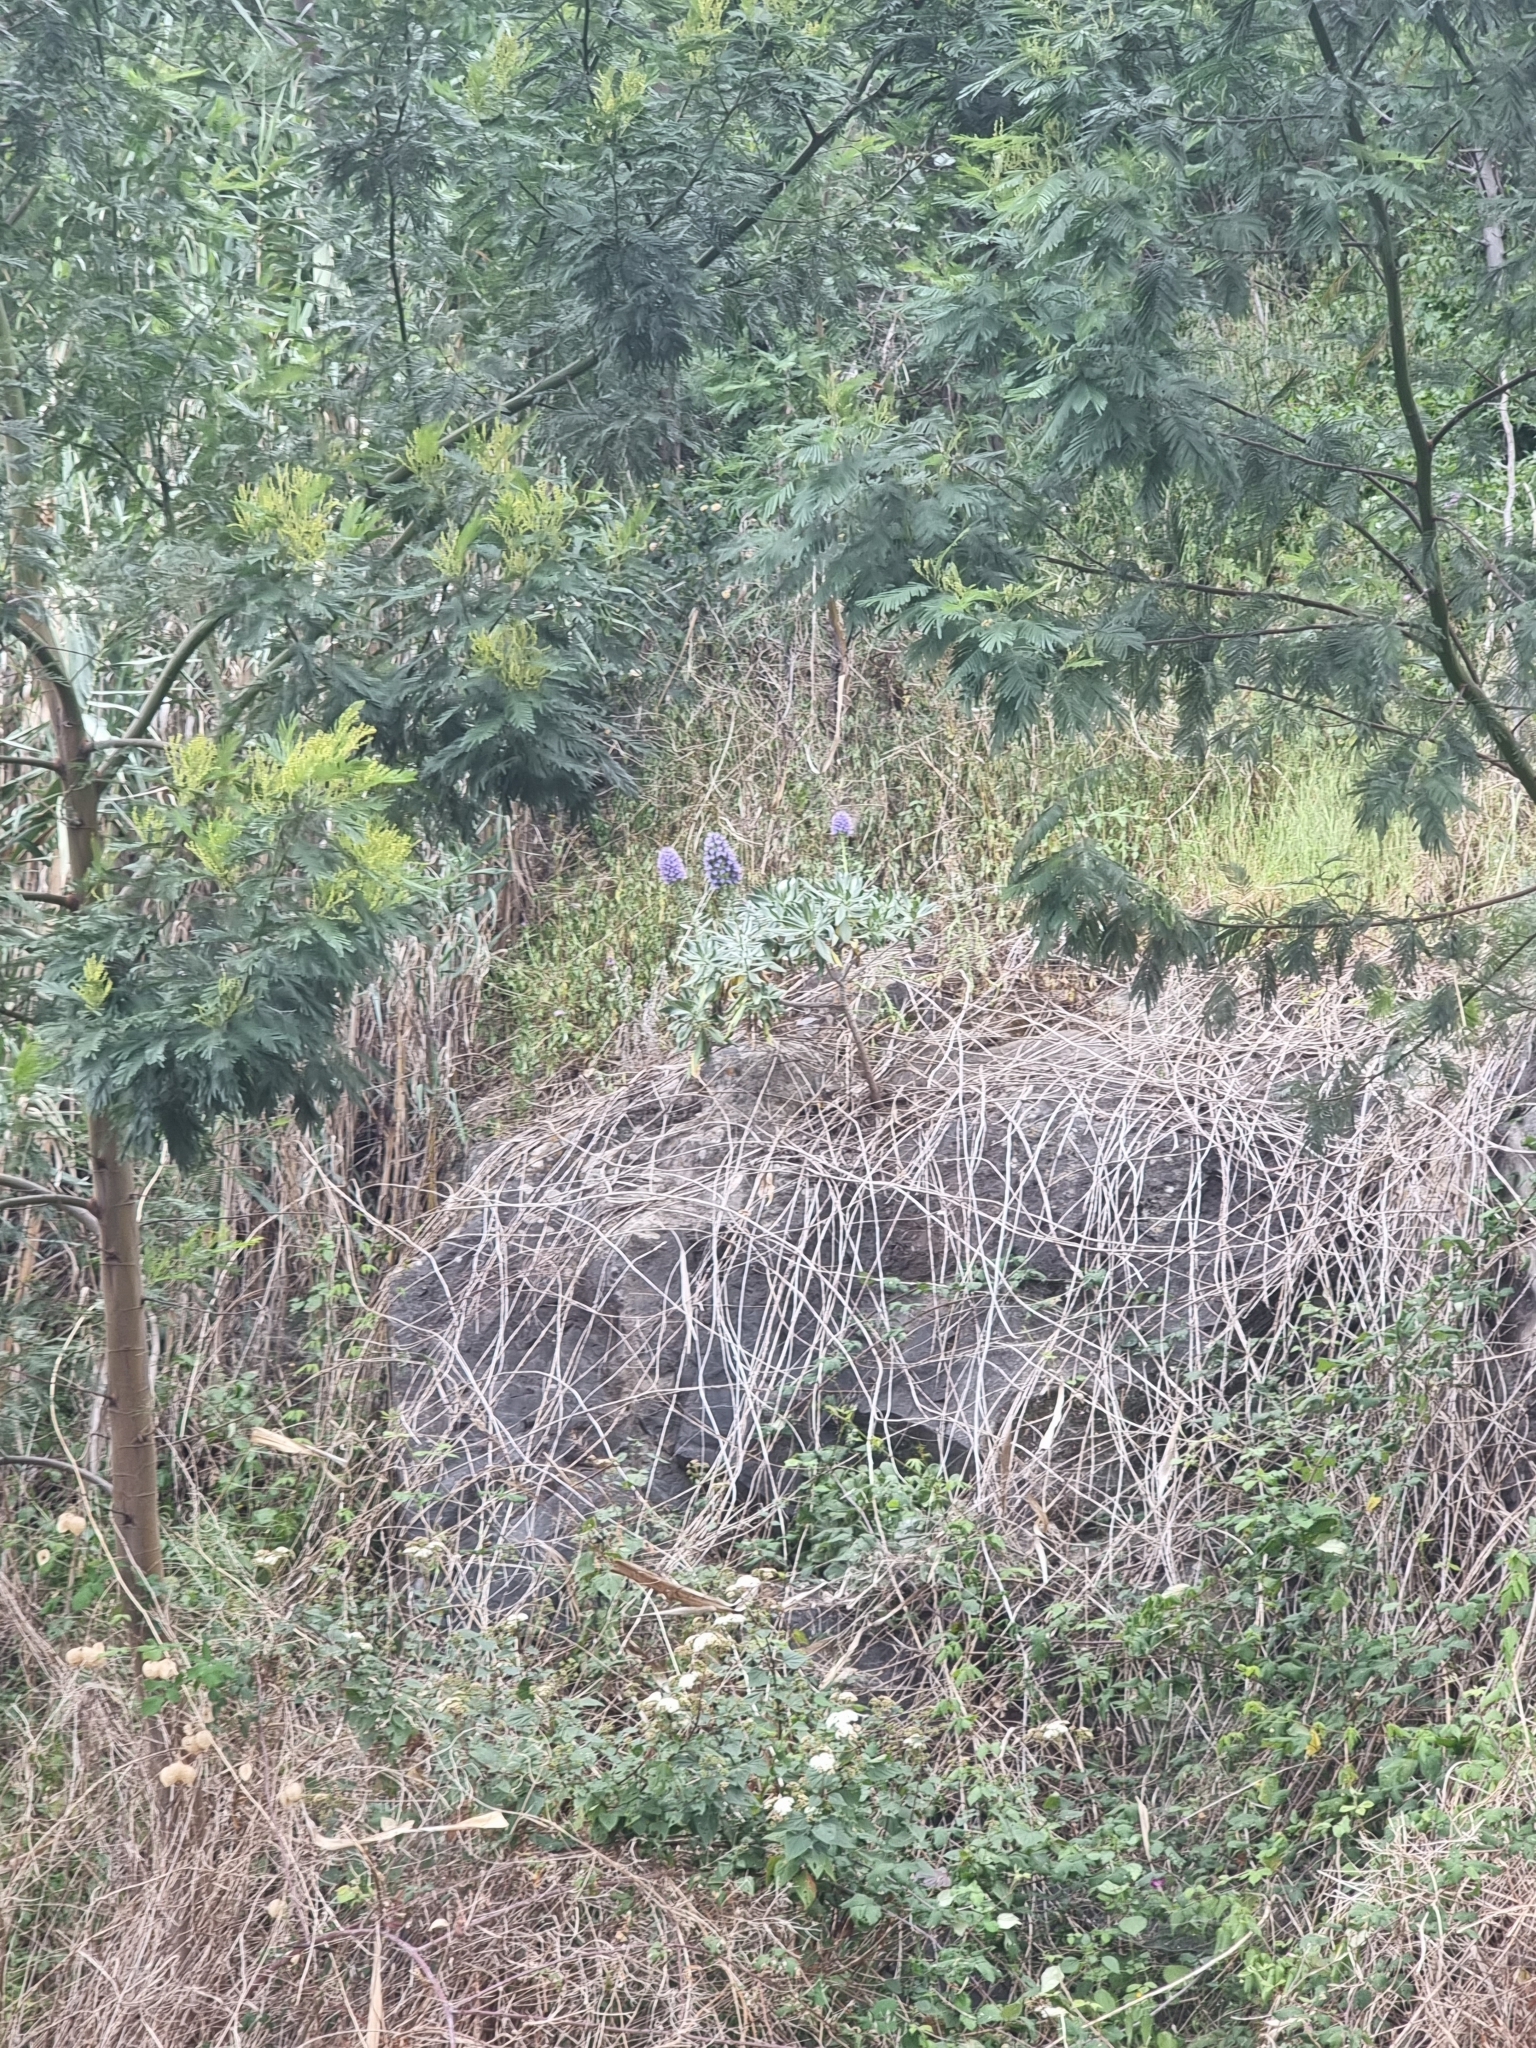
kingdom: Plantae
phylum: Tracheophyta
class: Magnoliopsida
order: Boraginales
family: Boraginaceae
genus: Echium
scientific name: Echium nervosum
